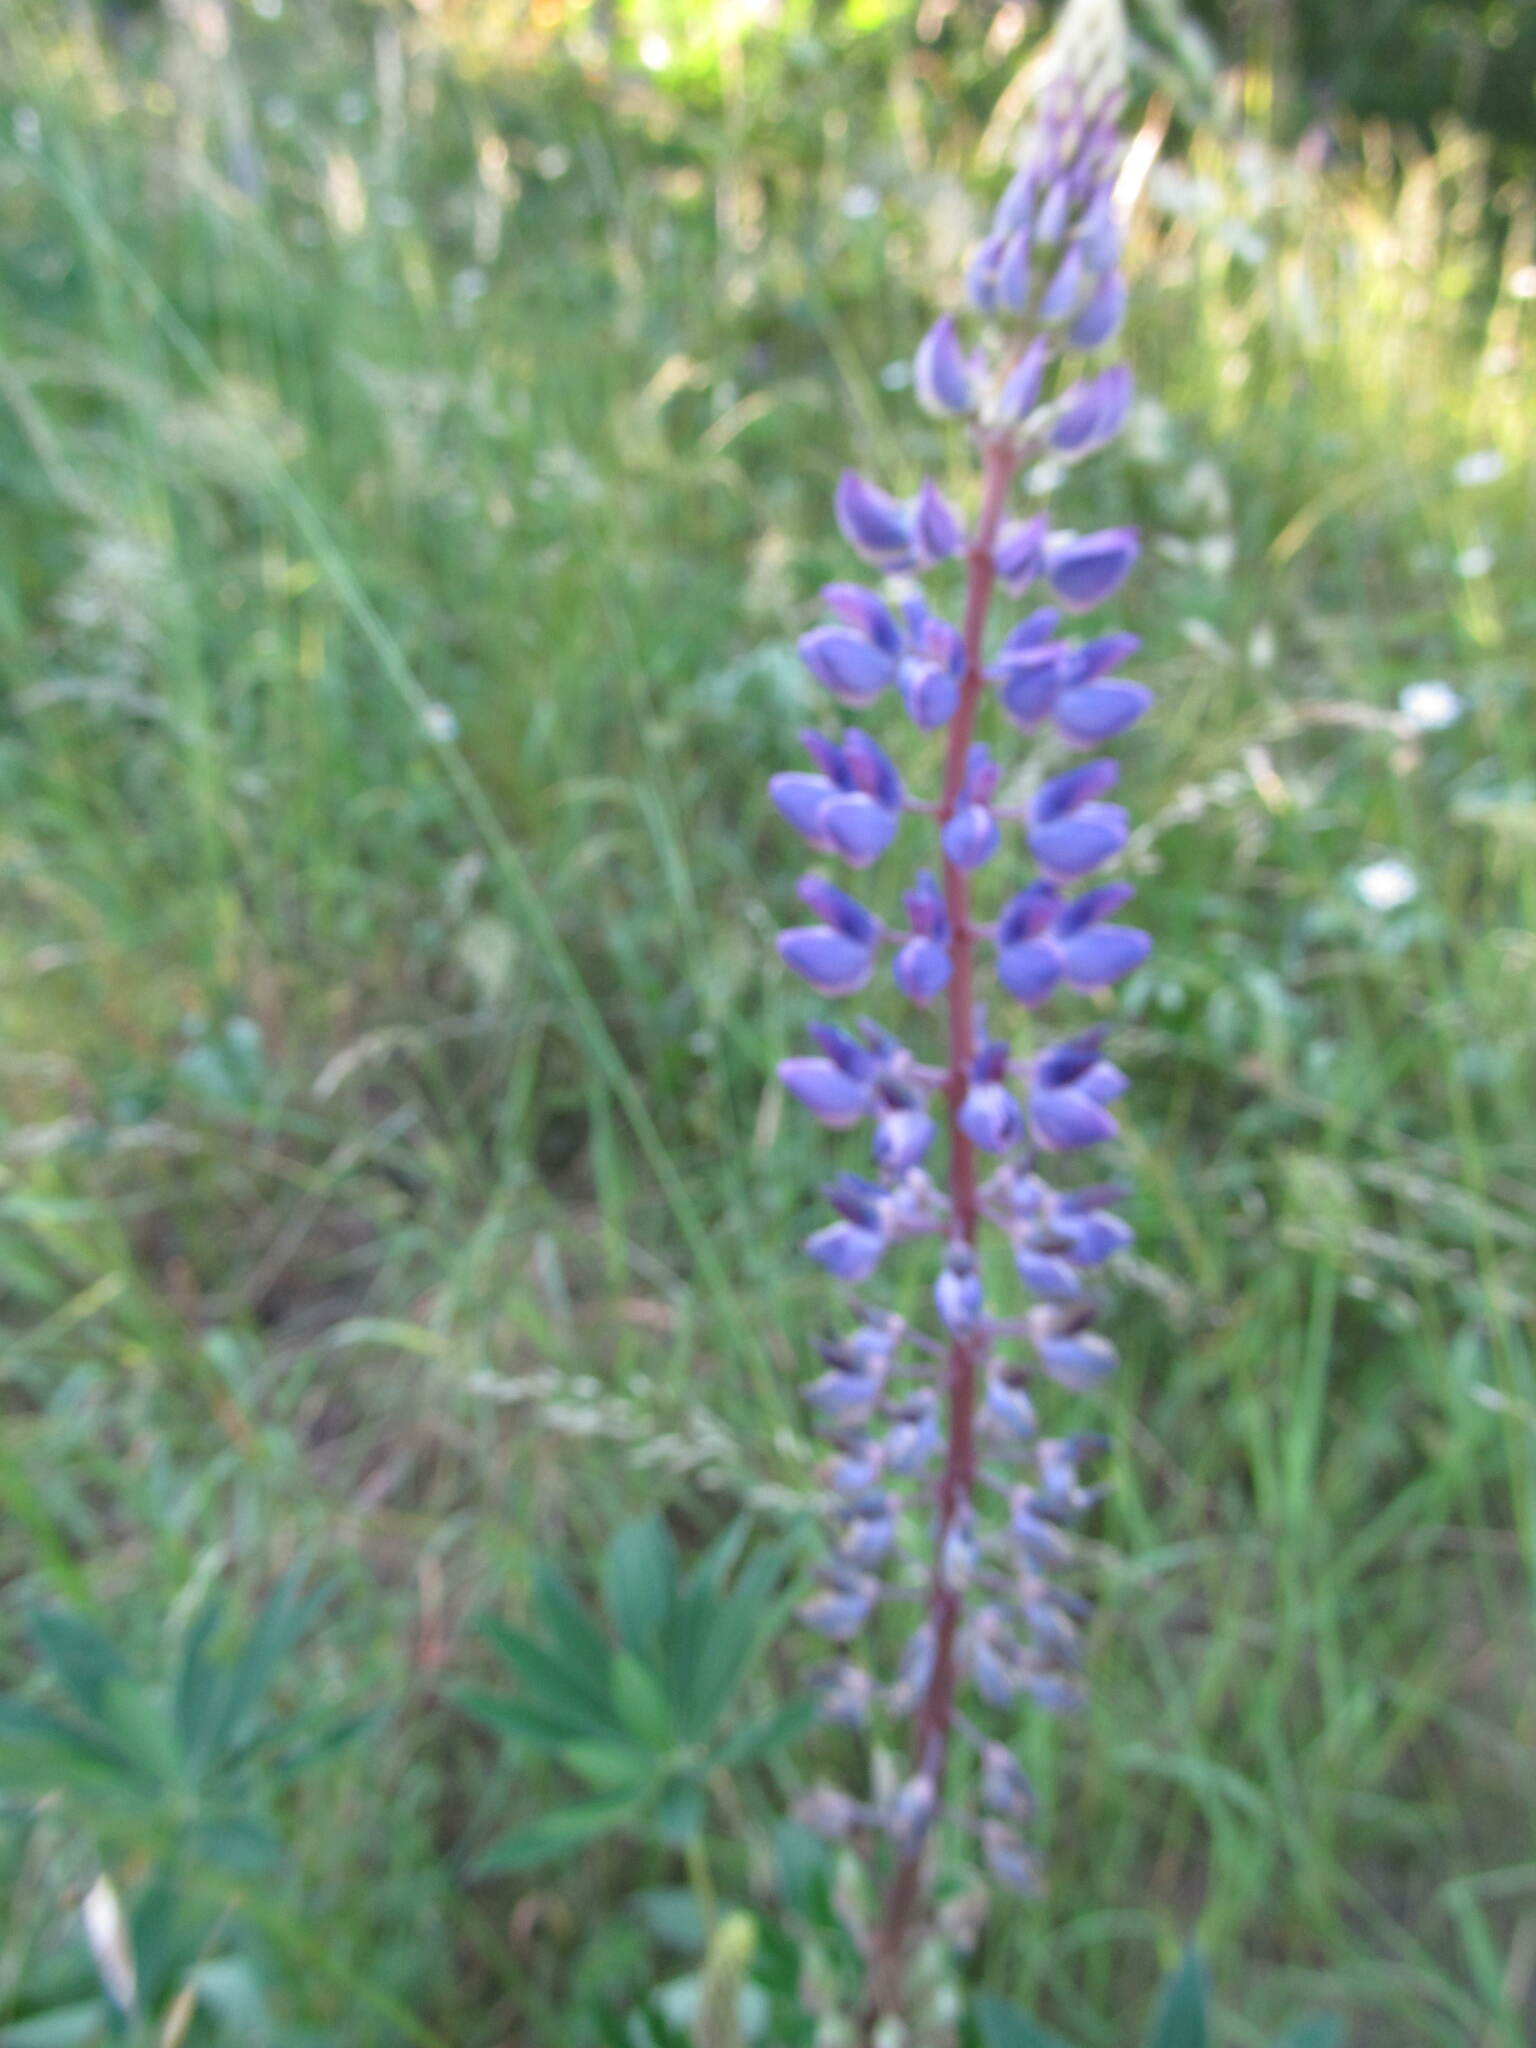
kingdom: Plantae
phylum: Tracheophyta
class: Magnoliopsida
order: Fabales
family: Fabaceae
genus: Lupinus
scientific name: Lupinus polyphyllus
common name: Garden lupin
